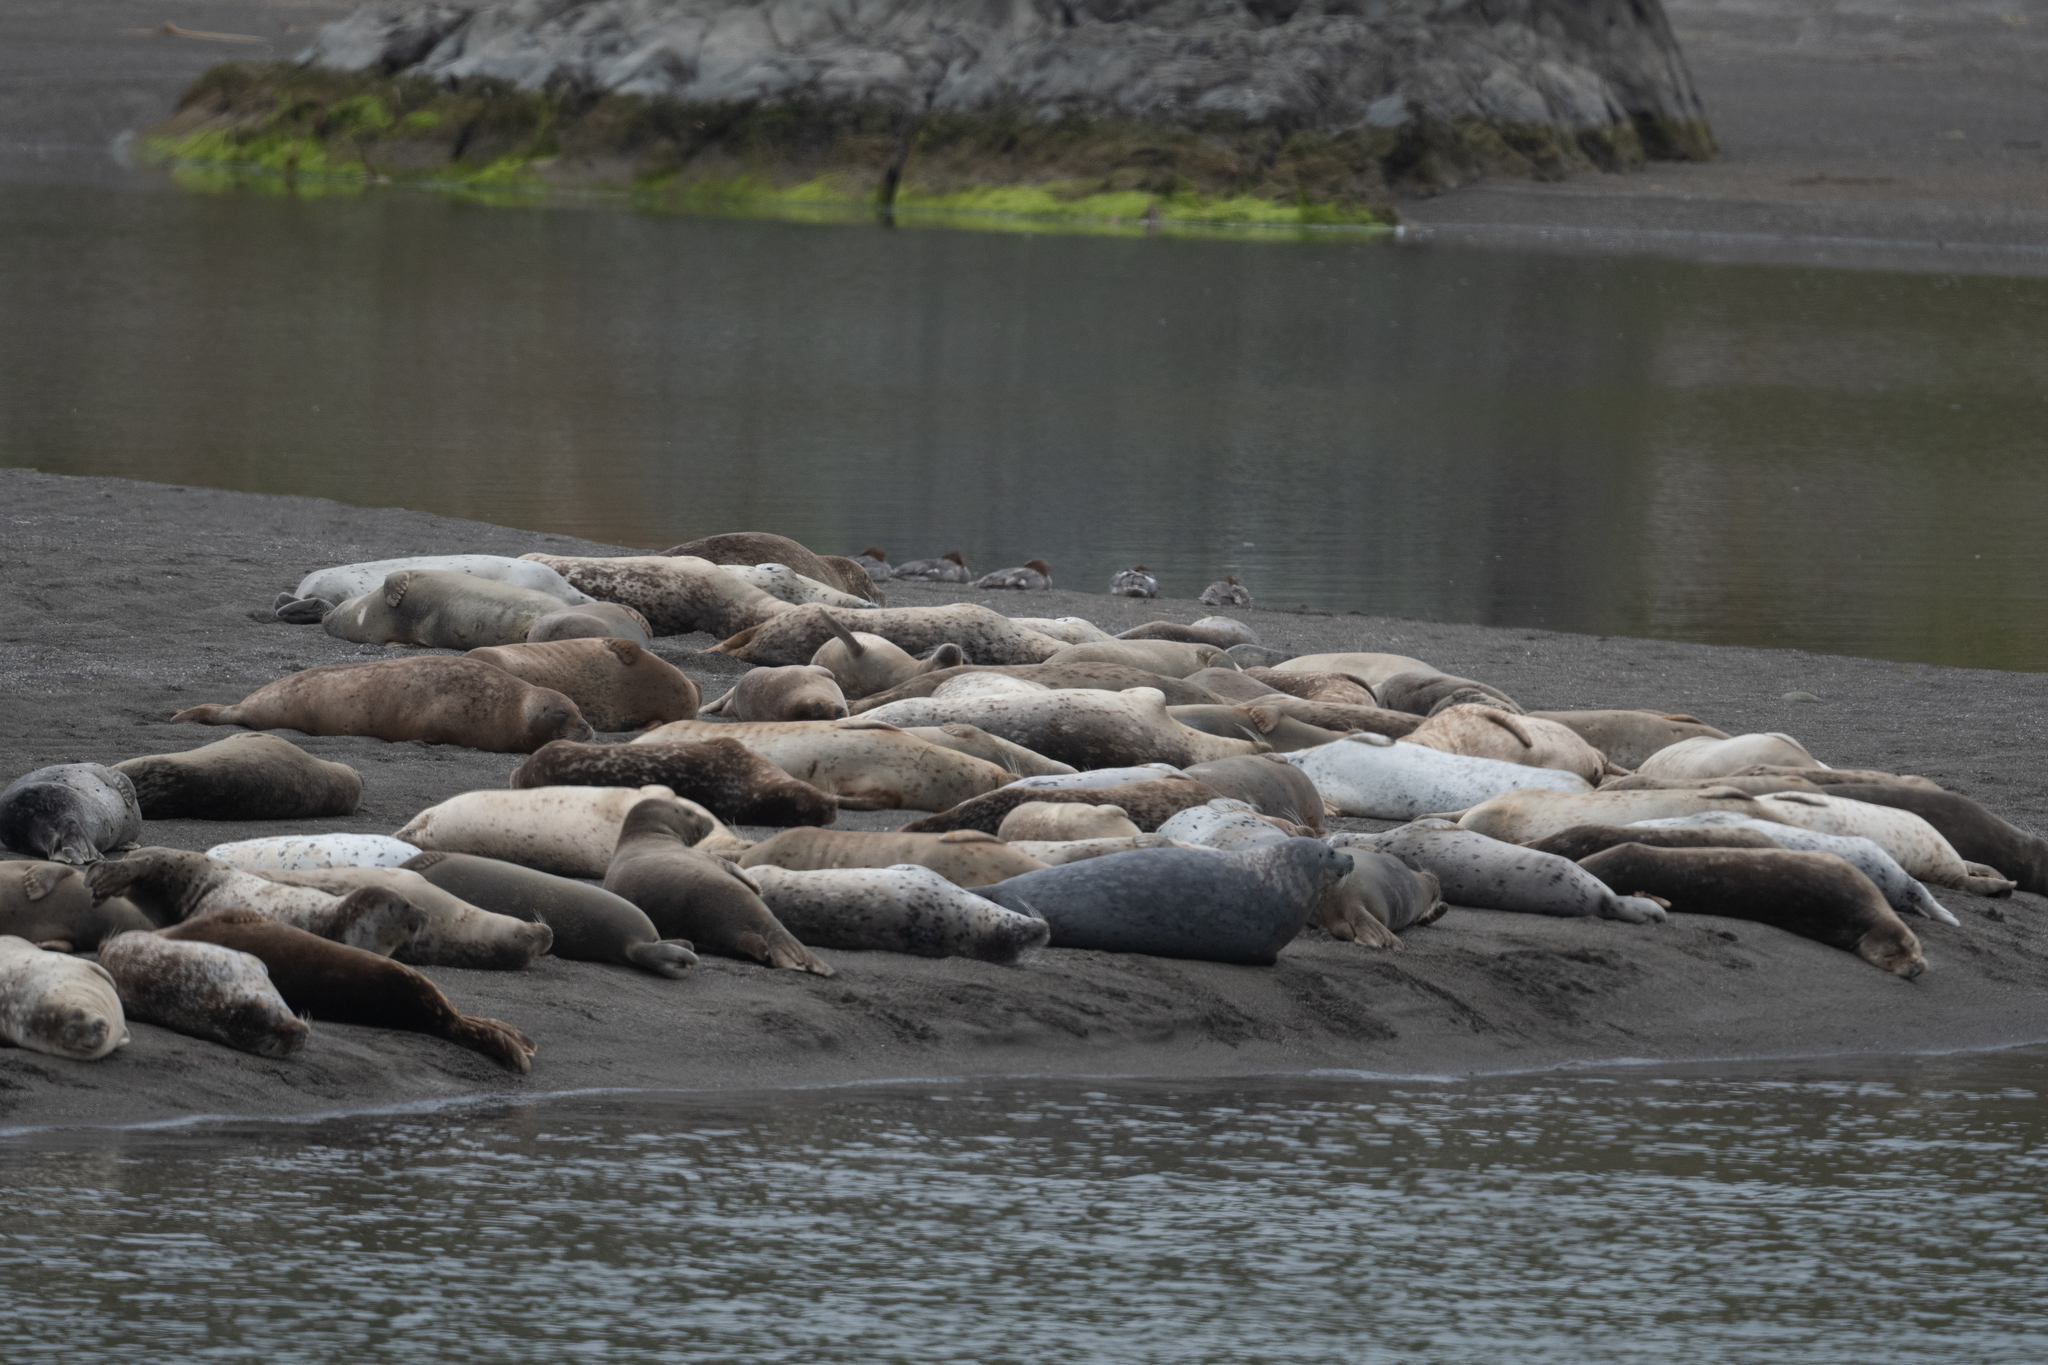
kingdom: Animalia
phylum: Chordata
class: Mammalia
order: Carnivora
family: Phocidae
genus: Phoca
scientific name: Phoca vitulina
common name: Harbor seal
